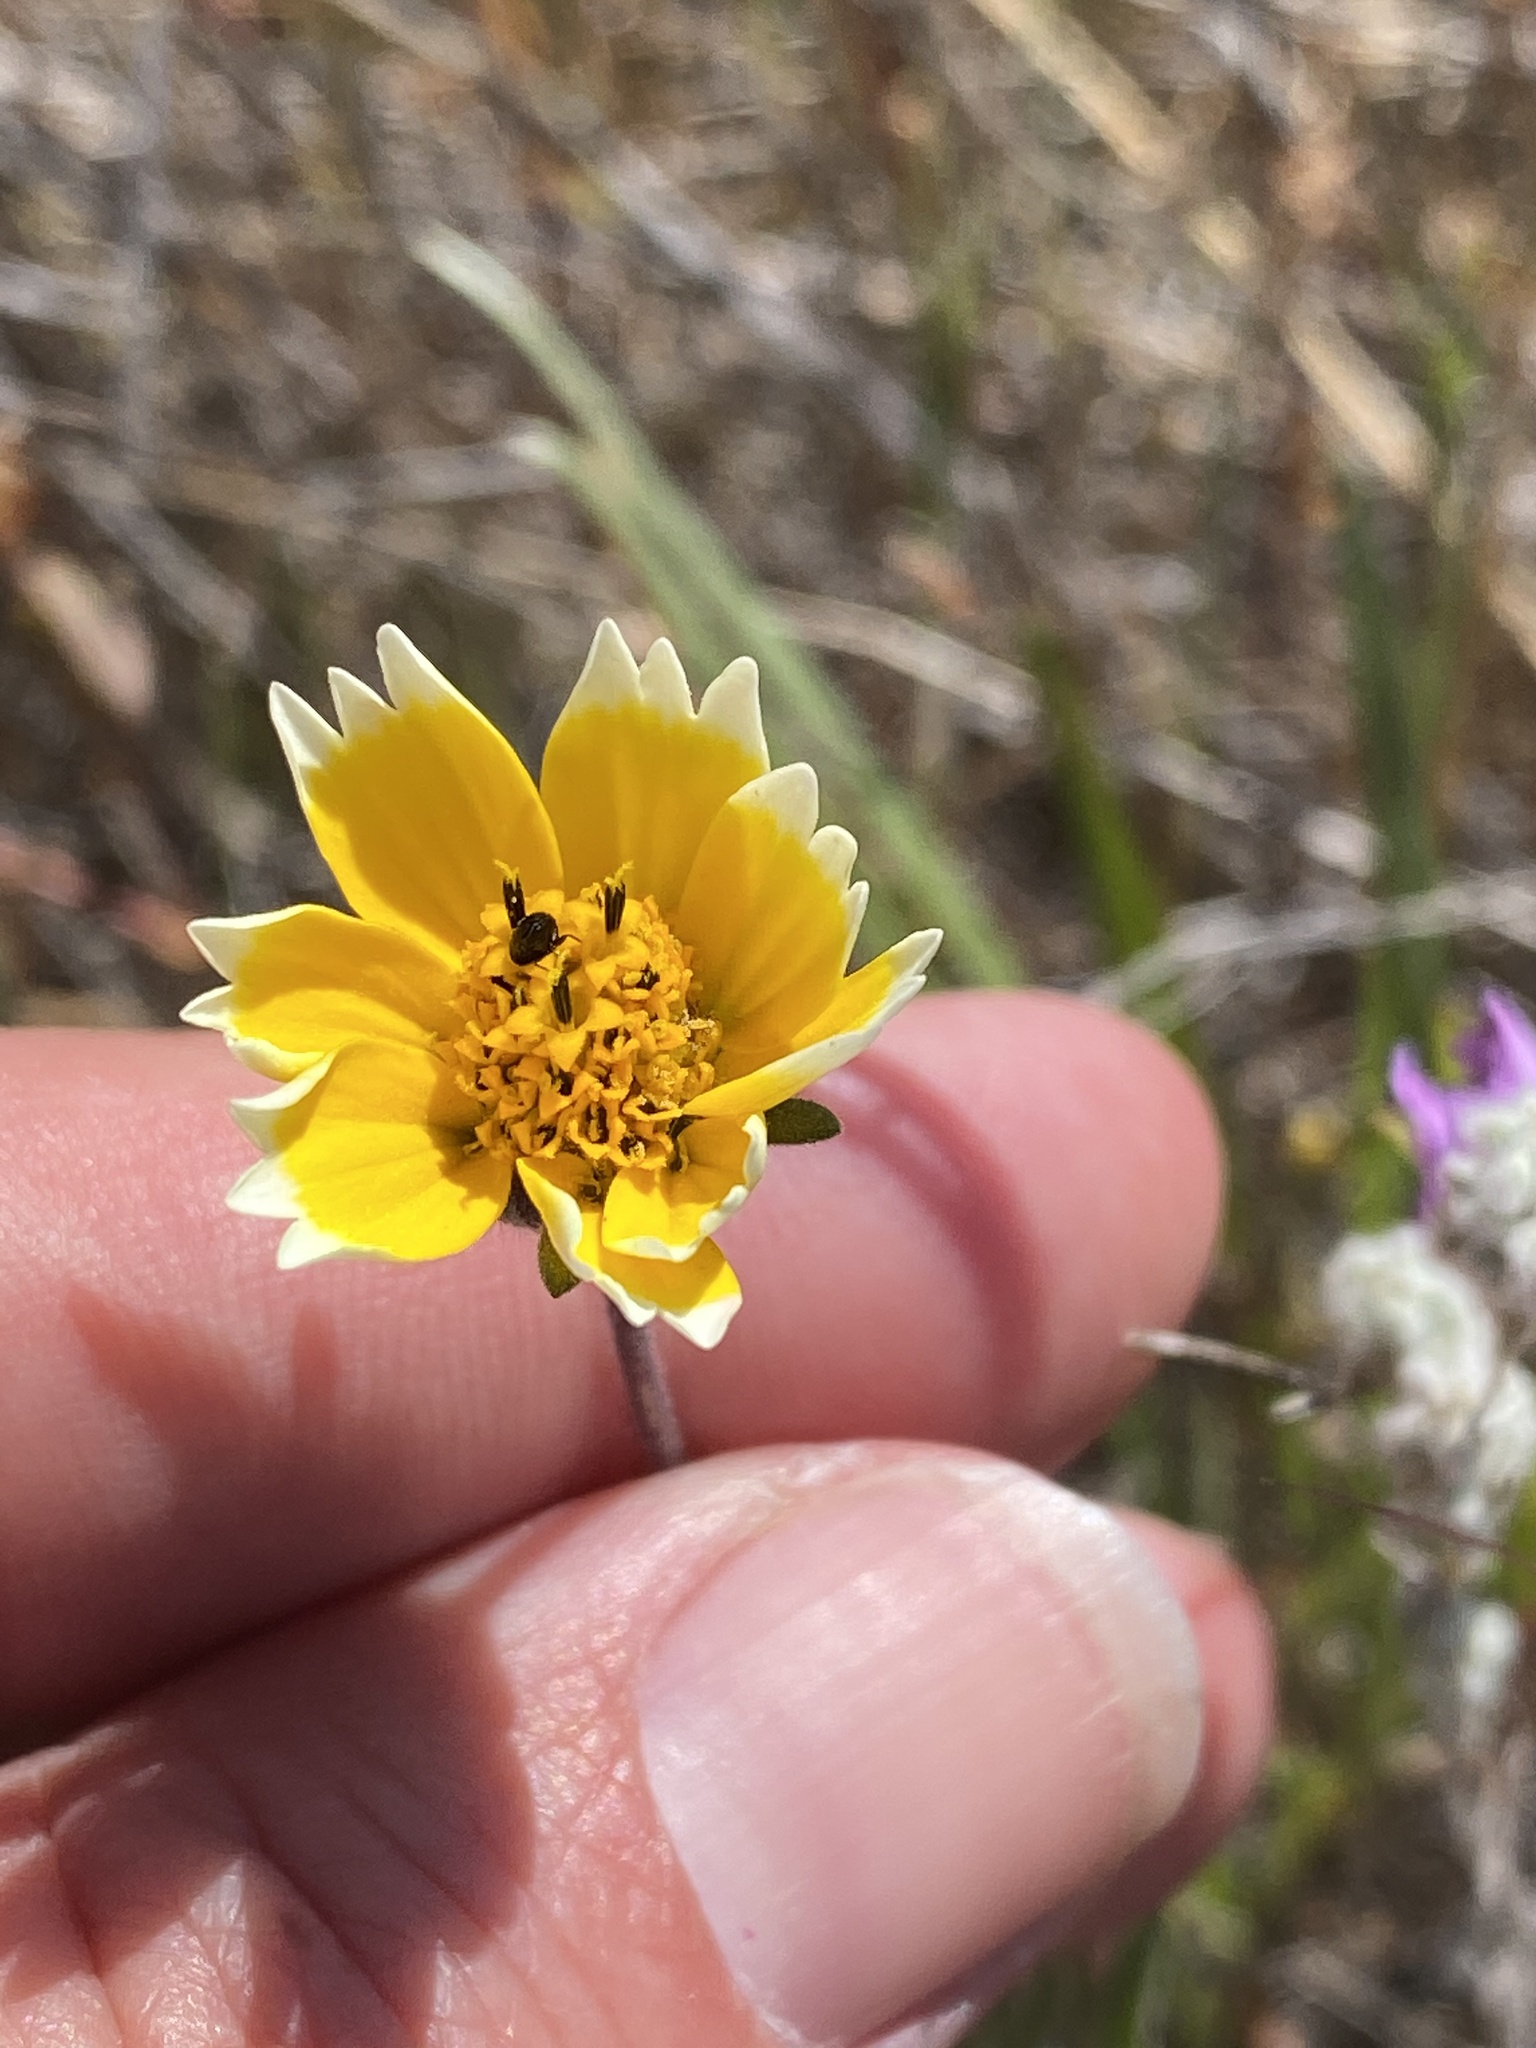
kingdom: Plantae
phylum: Tracheophyta
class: Magnoliopsida
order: Asterales
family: Asteraceae
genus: Layia
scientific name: Layia platyglossa
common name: Tidy-tips
